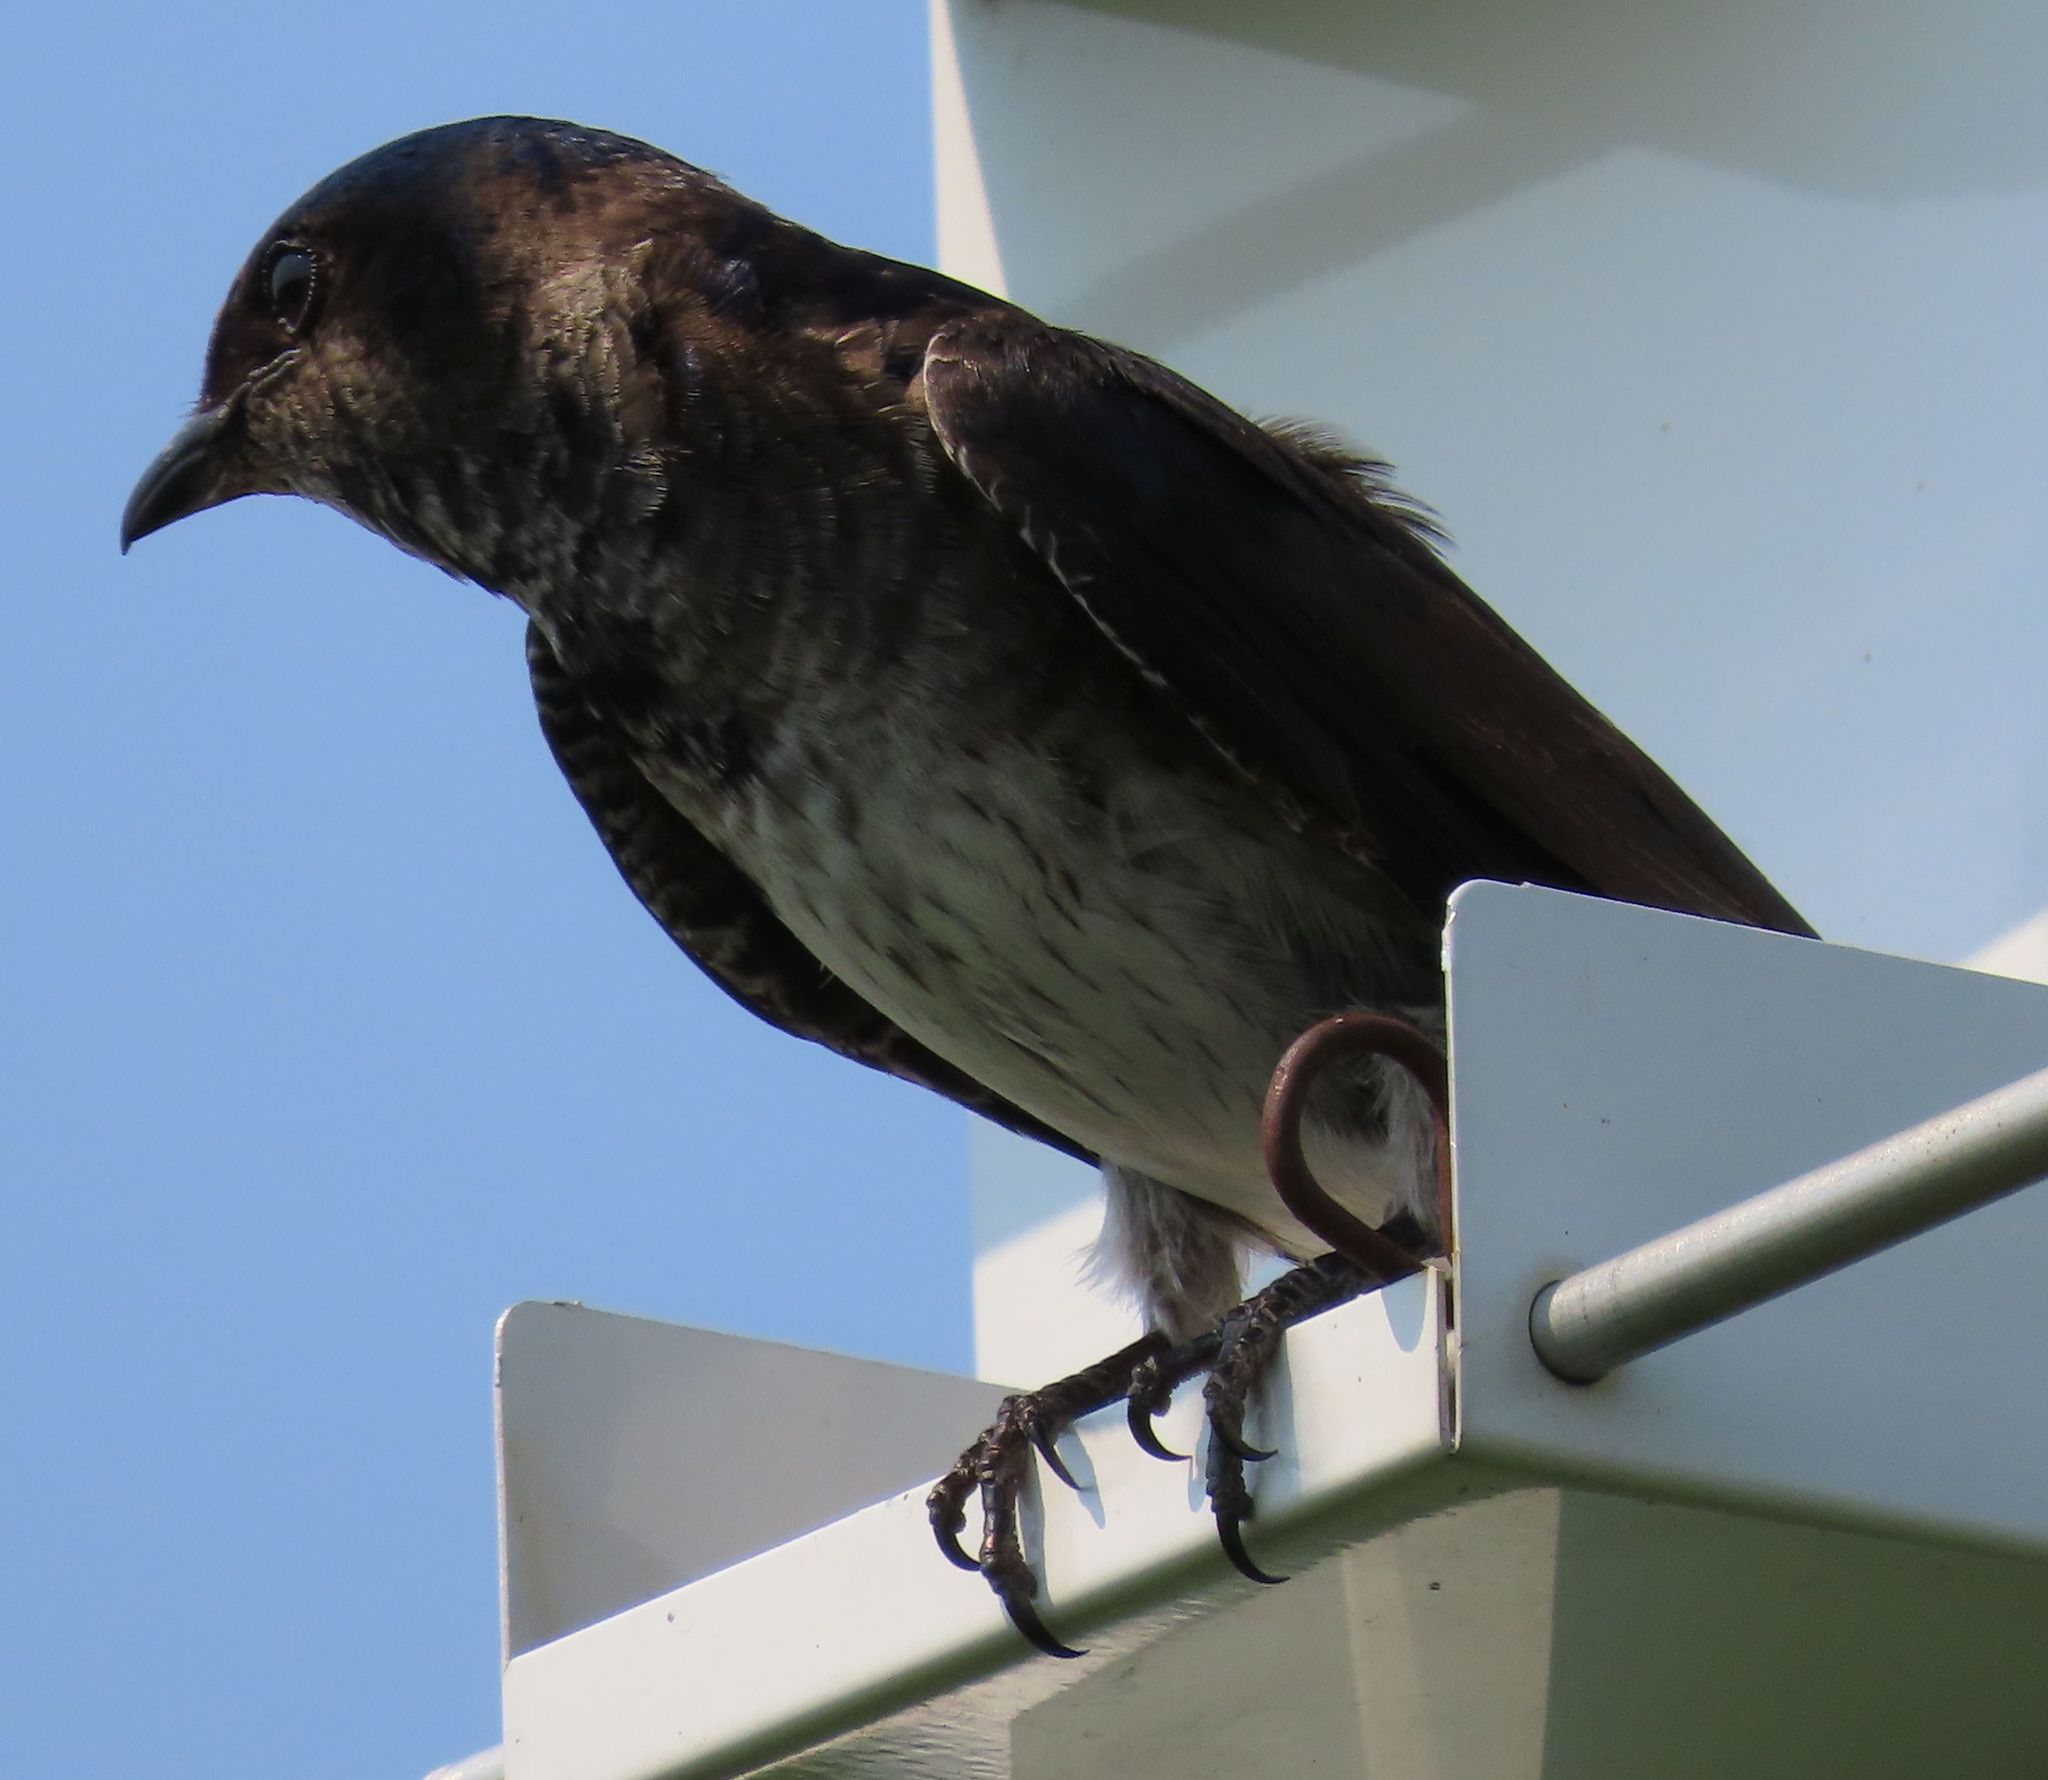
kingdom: Animalia
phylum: Chordata
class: Aves
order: Passeriformes
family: Hirundinidae
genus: Progne
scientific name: Progne subis
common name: Purple martin
